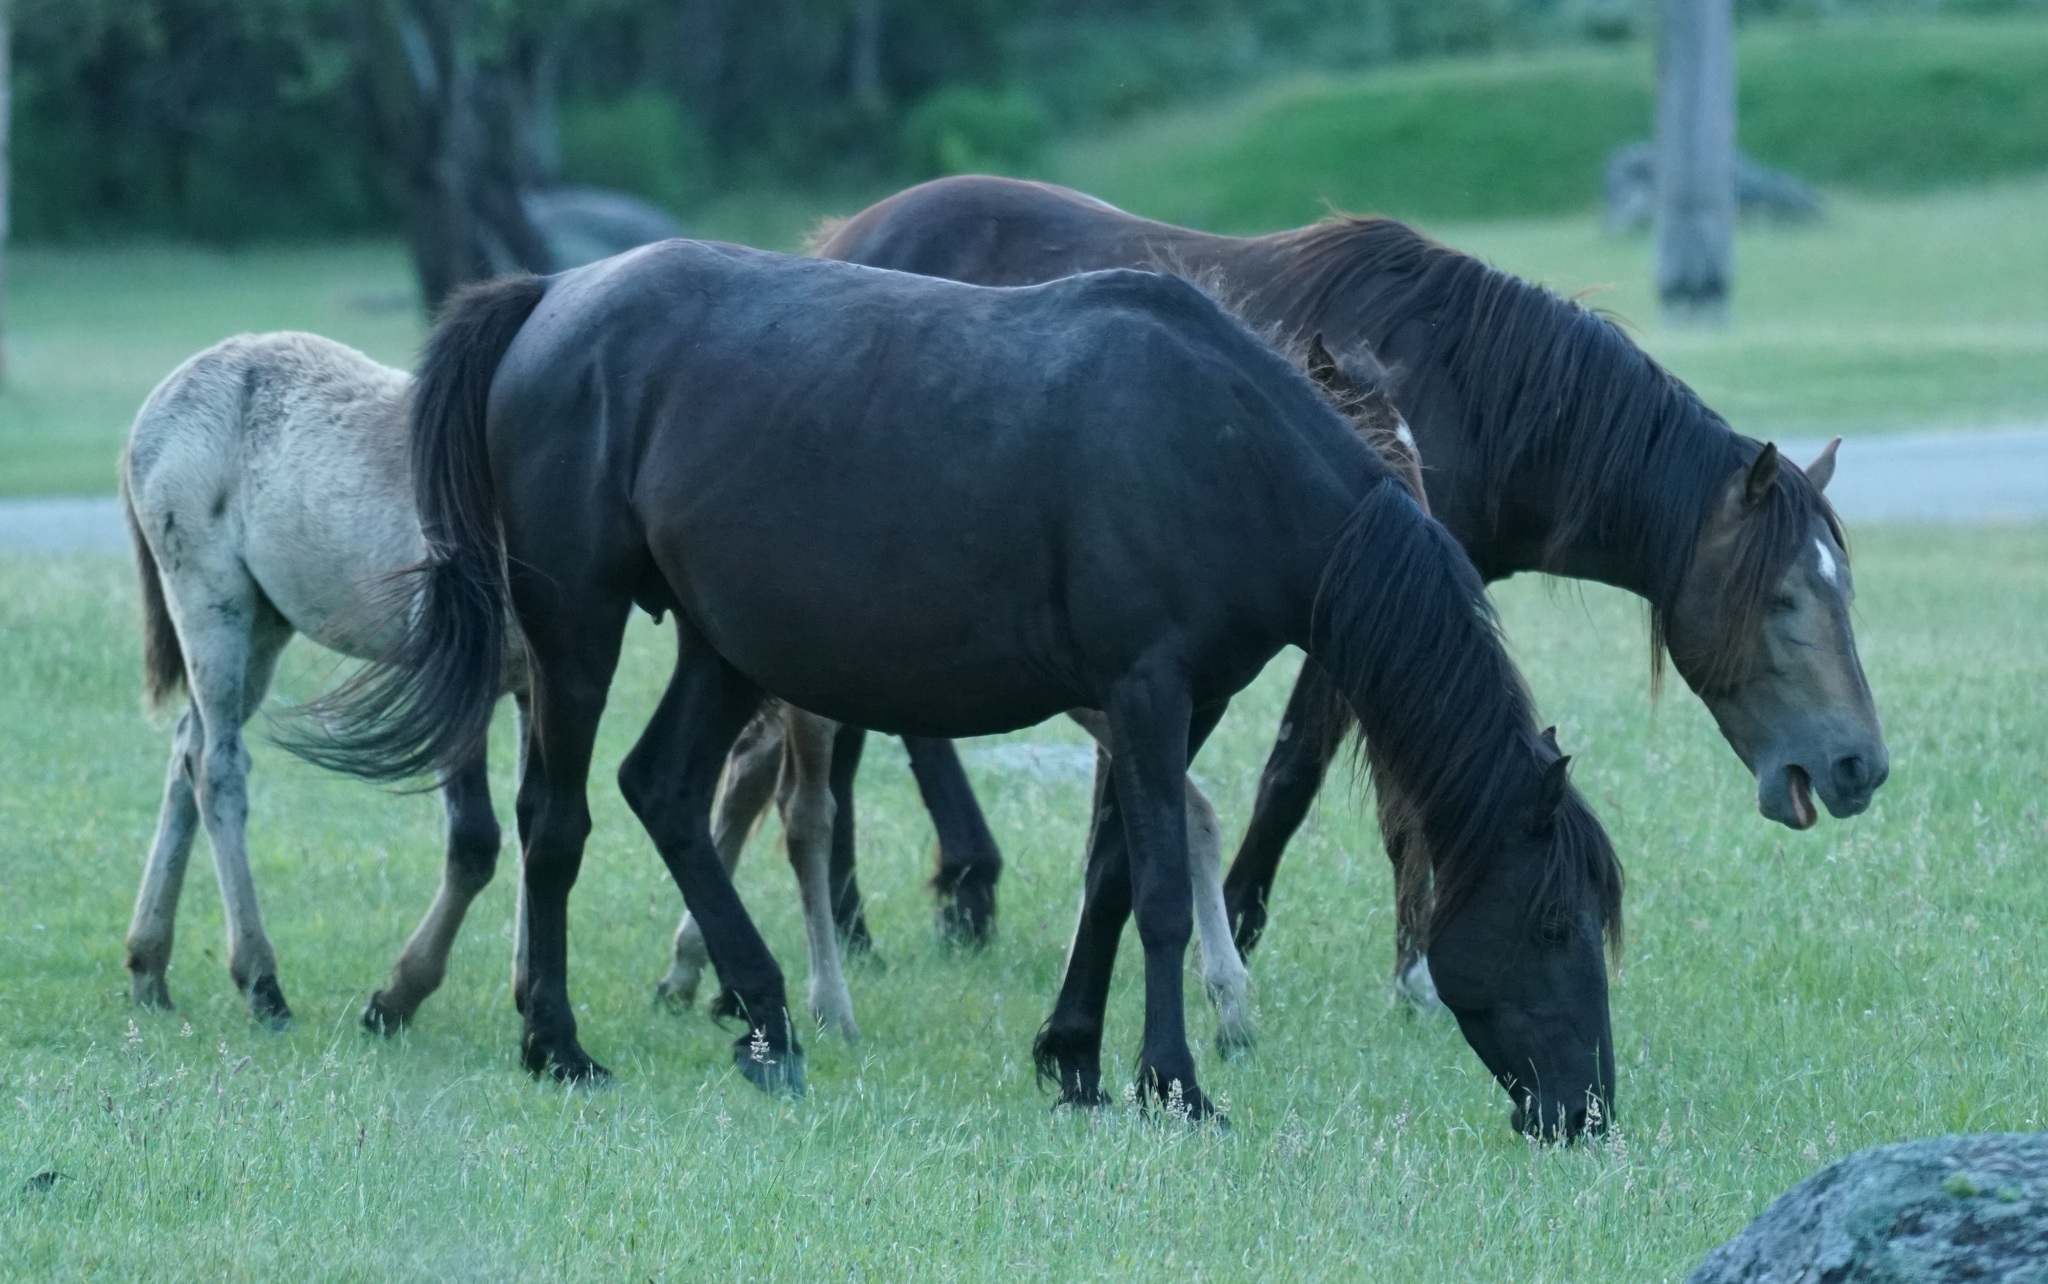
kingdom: Animalia
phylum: Chordata
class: Mammalia
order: Perissodactyla
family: Equidae
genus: Equus
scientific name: Equus caballus
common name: Horse
